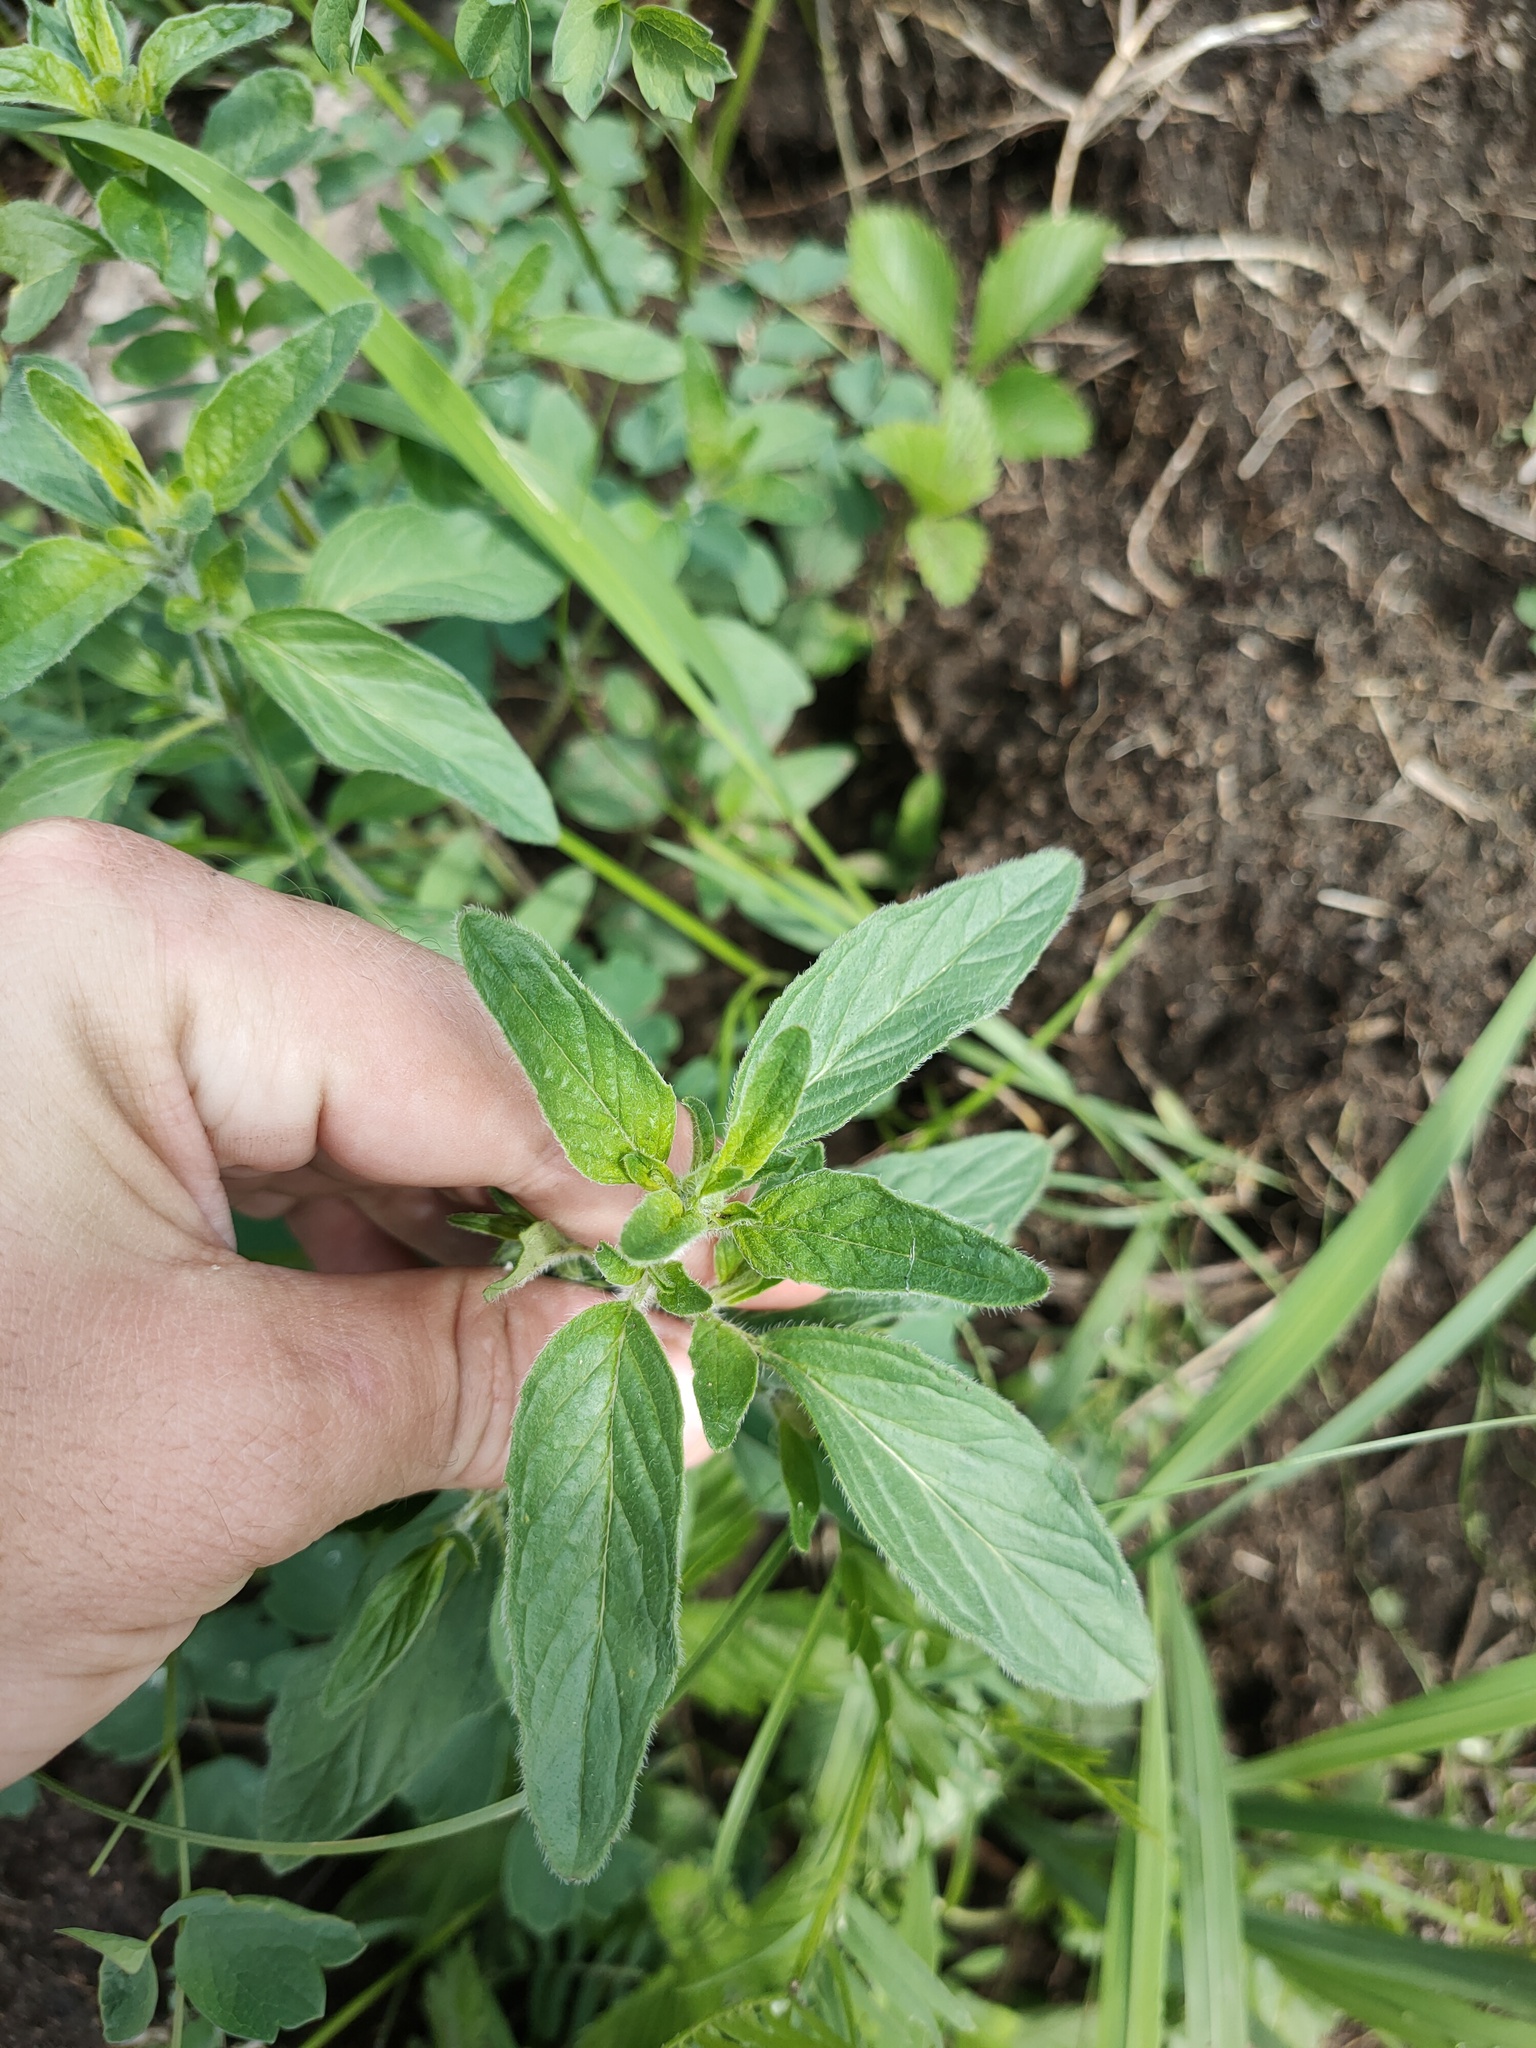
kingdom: Plantae
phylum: Tracheophyta
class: Magnoliopsida
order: Lamiales
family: Lamiaceae
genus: Origanum
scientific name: Origanum vulgare
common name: Wild marjoram
